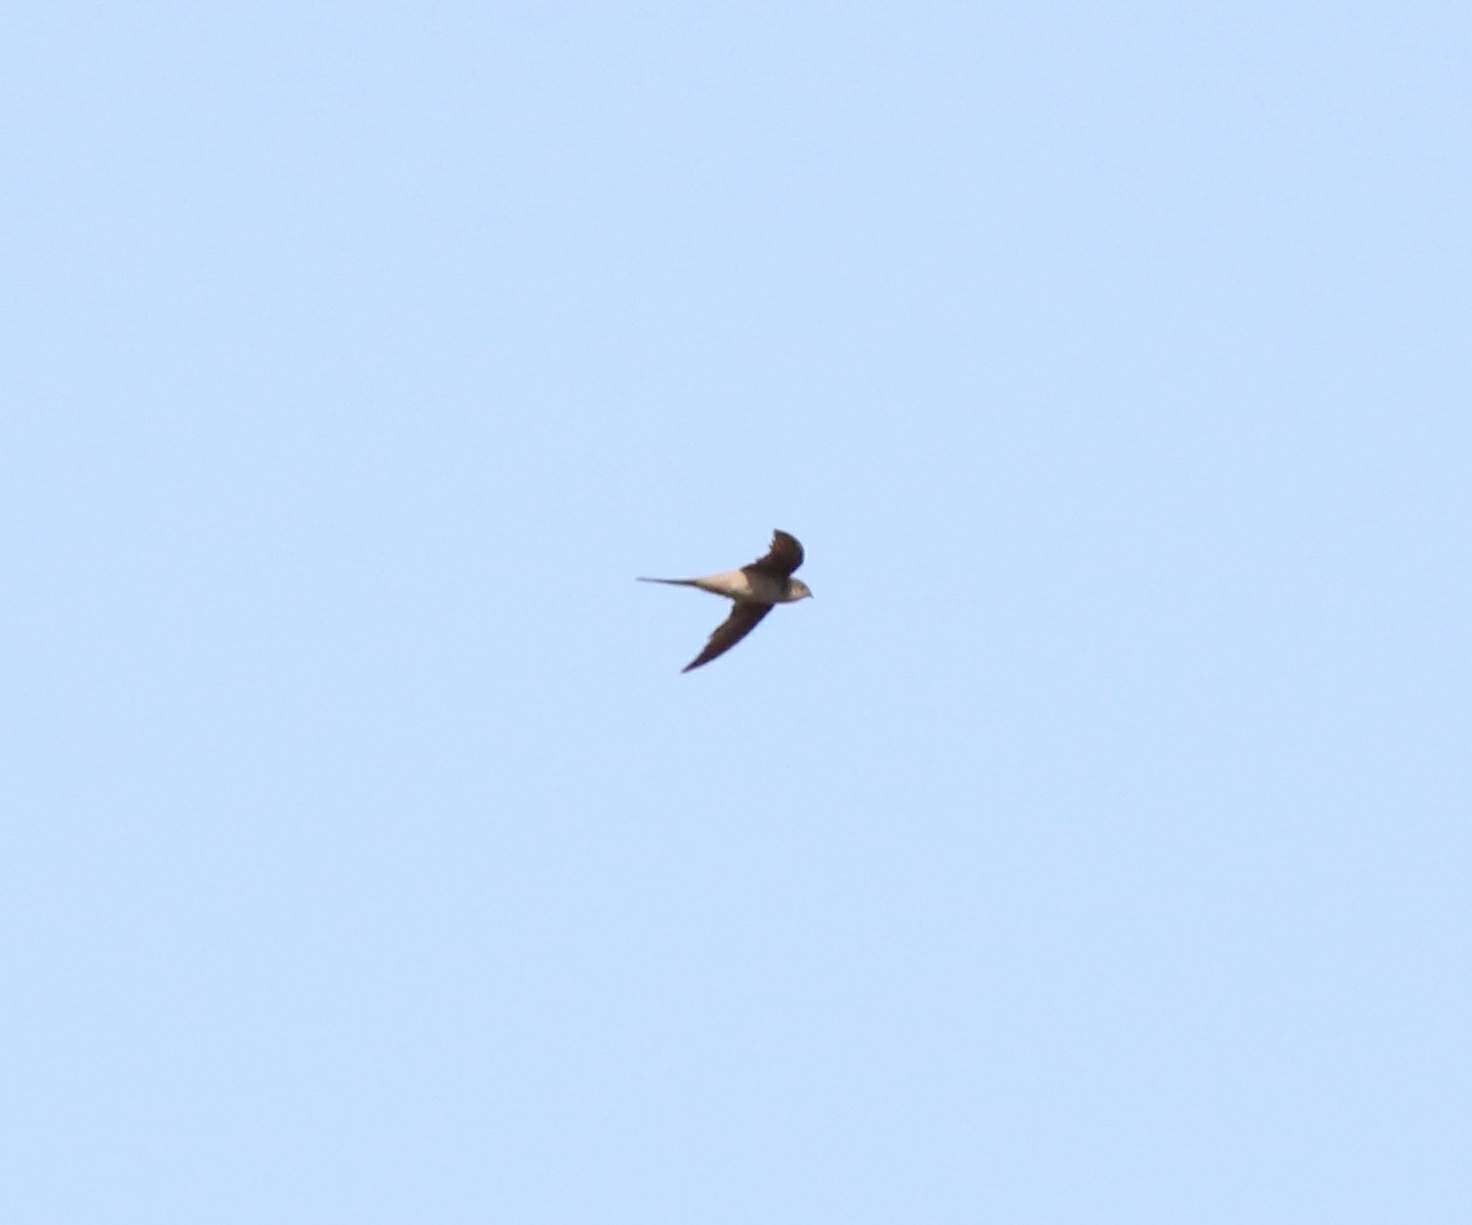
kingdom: Animalia
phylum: Chordata
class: Aves
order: Apodiformes
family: Apodidae
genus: Cypsiurus
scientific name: Cypsiurus balasiensis
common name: Asian palm swift
